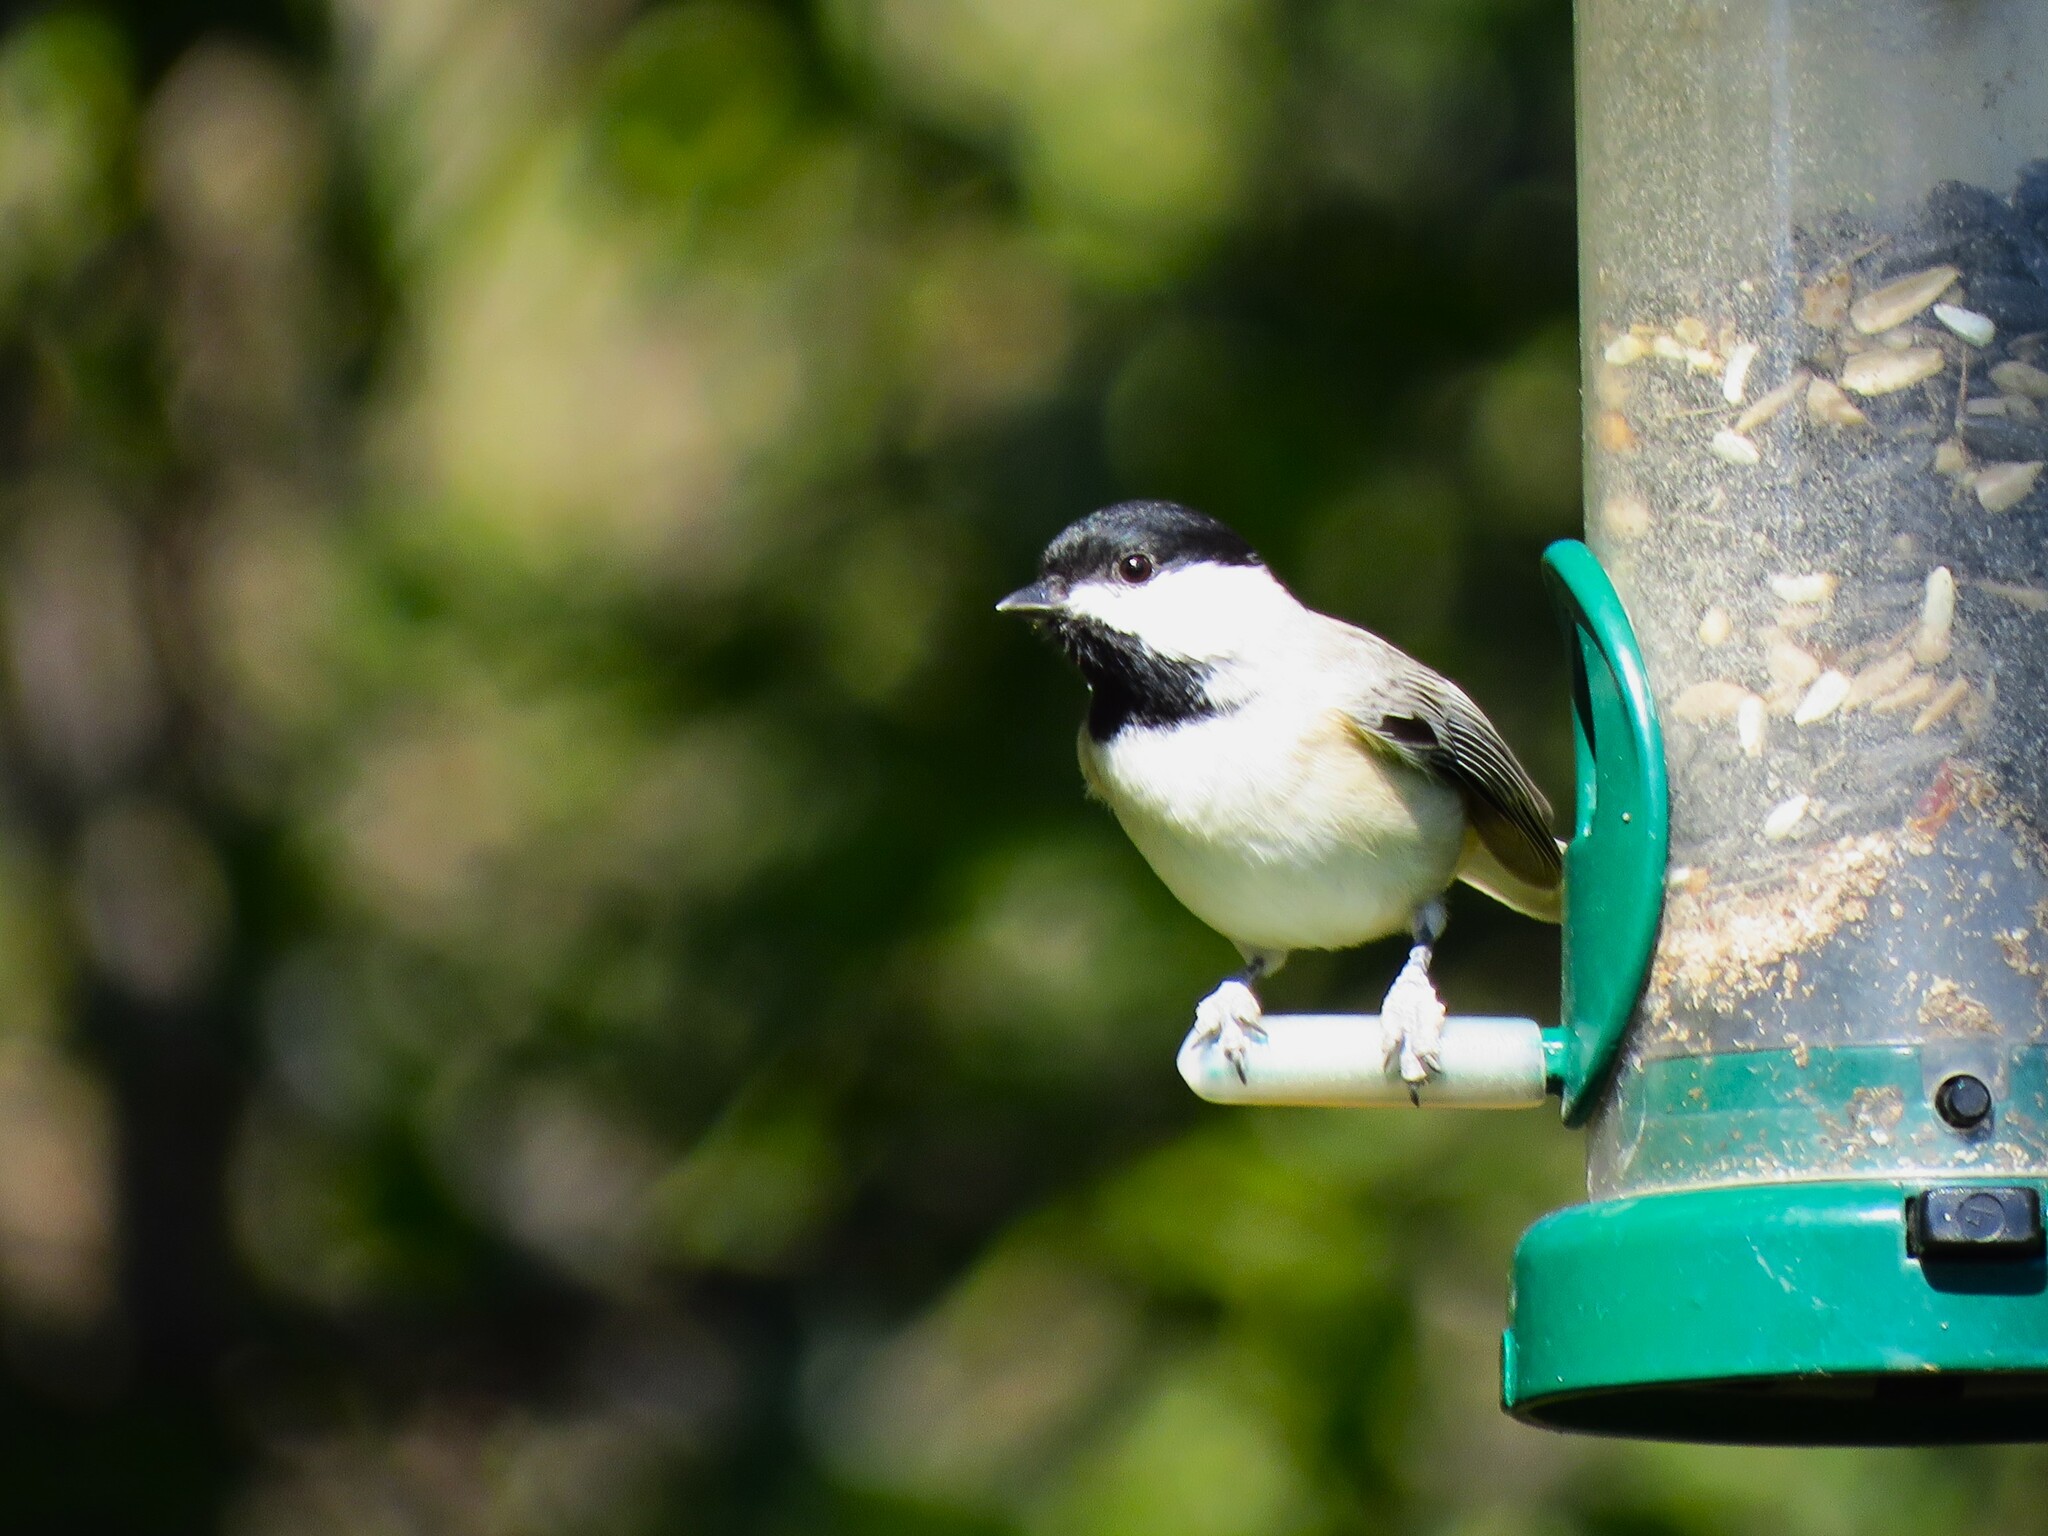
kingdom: Animalia
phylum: Chordata
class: Aves
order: Passeriformes
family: Paridae
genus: Poecile
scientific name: Poecile carolinensis
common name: Carolina chickadee
